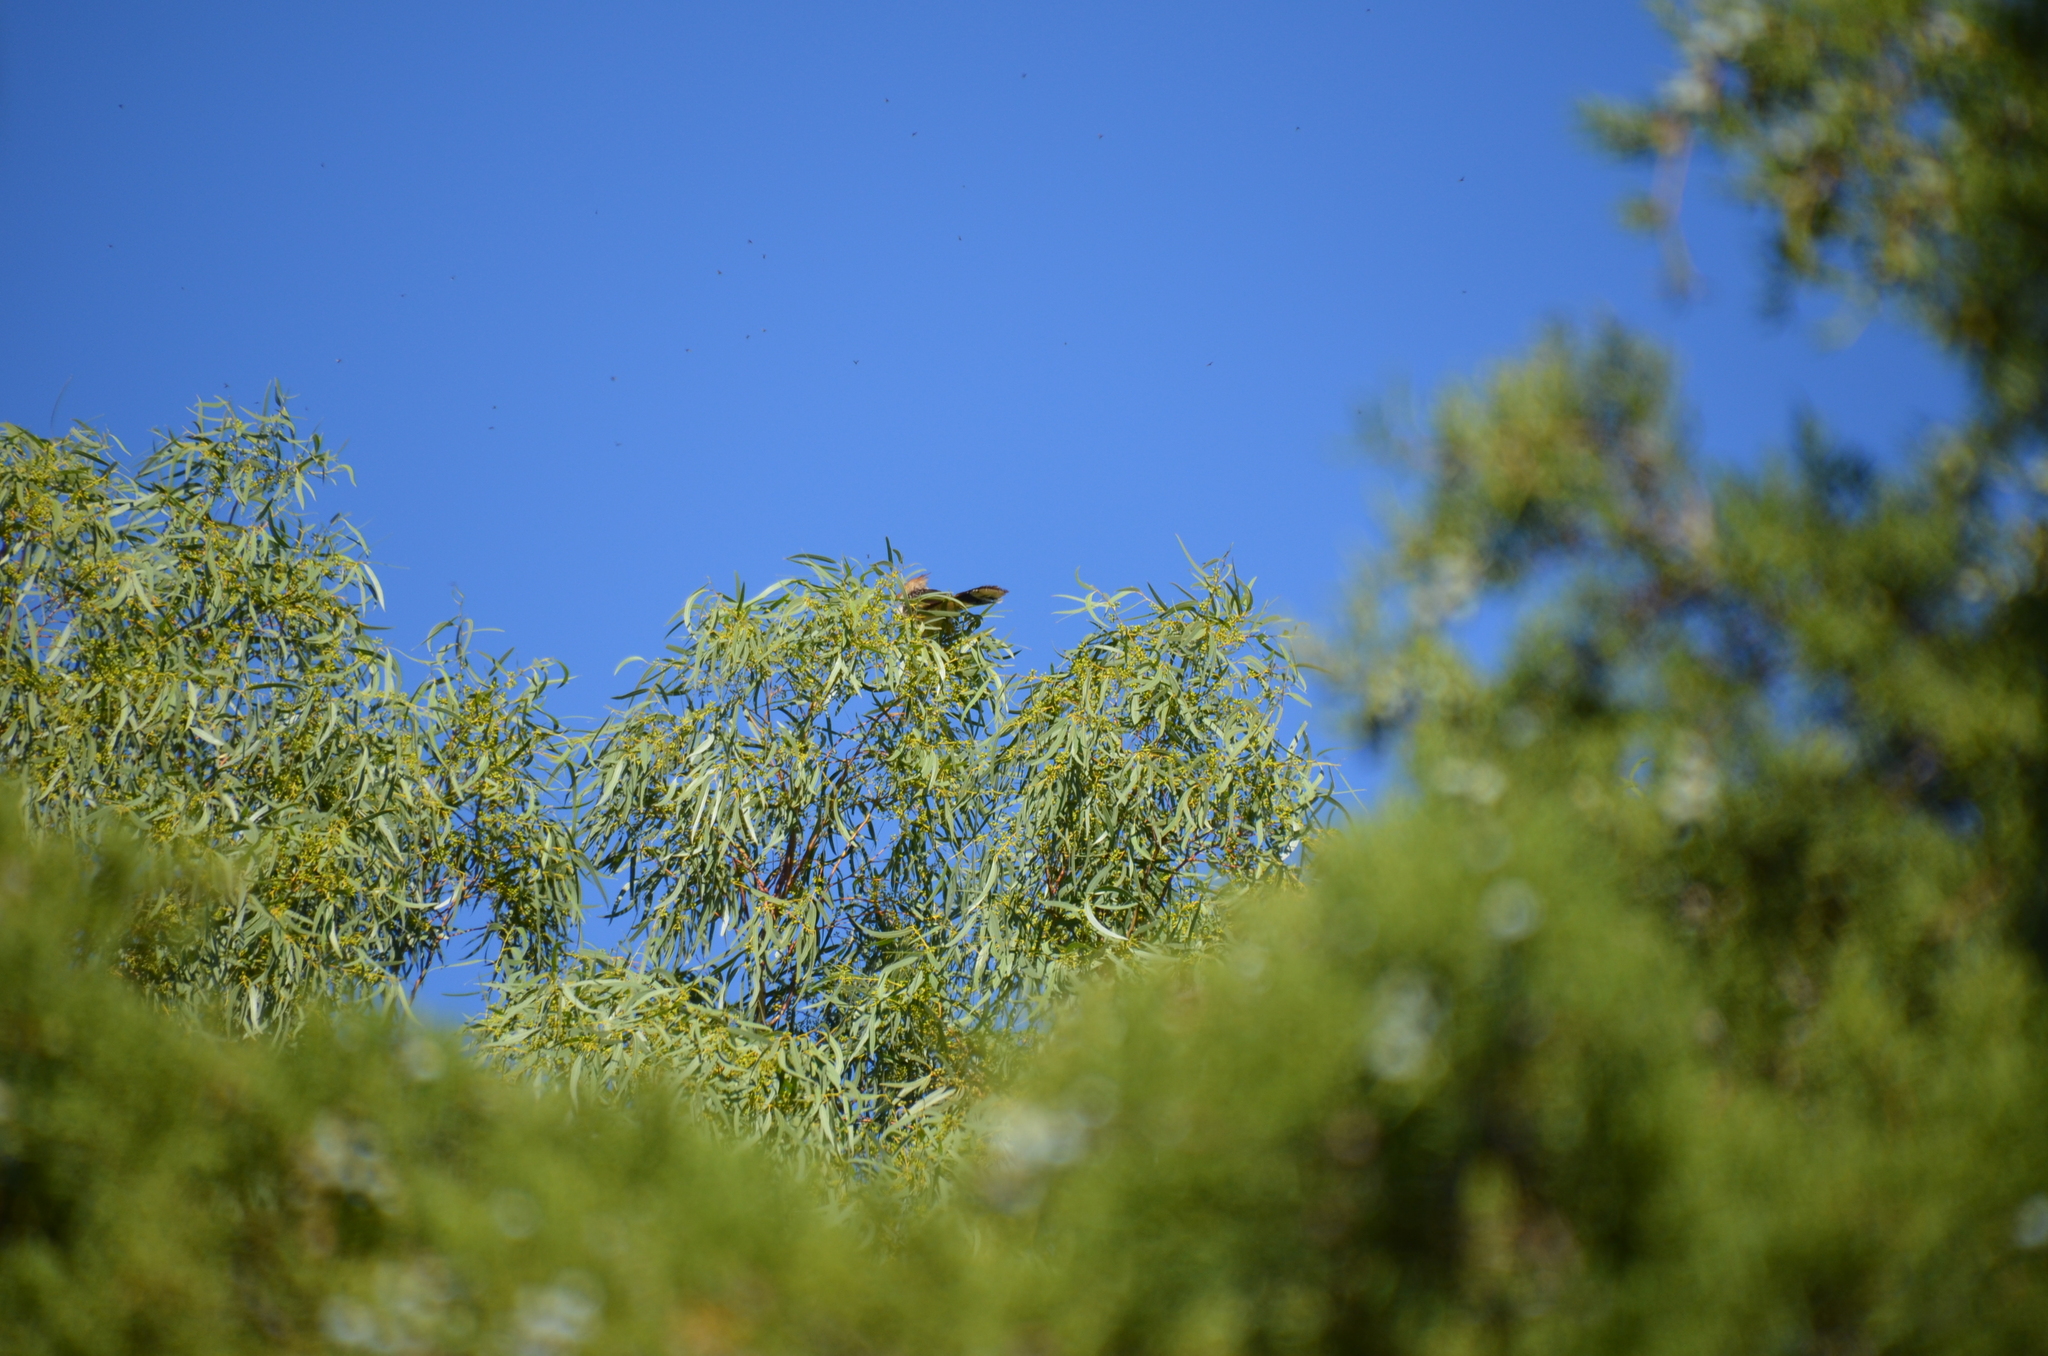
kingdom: Animalia
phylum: Chordata
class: Aves
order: Cuculiformes
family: Cuculidae
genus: Guira
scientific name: Guira guira
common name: Guira cuckoo
